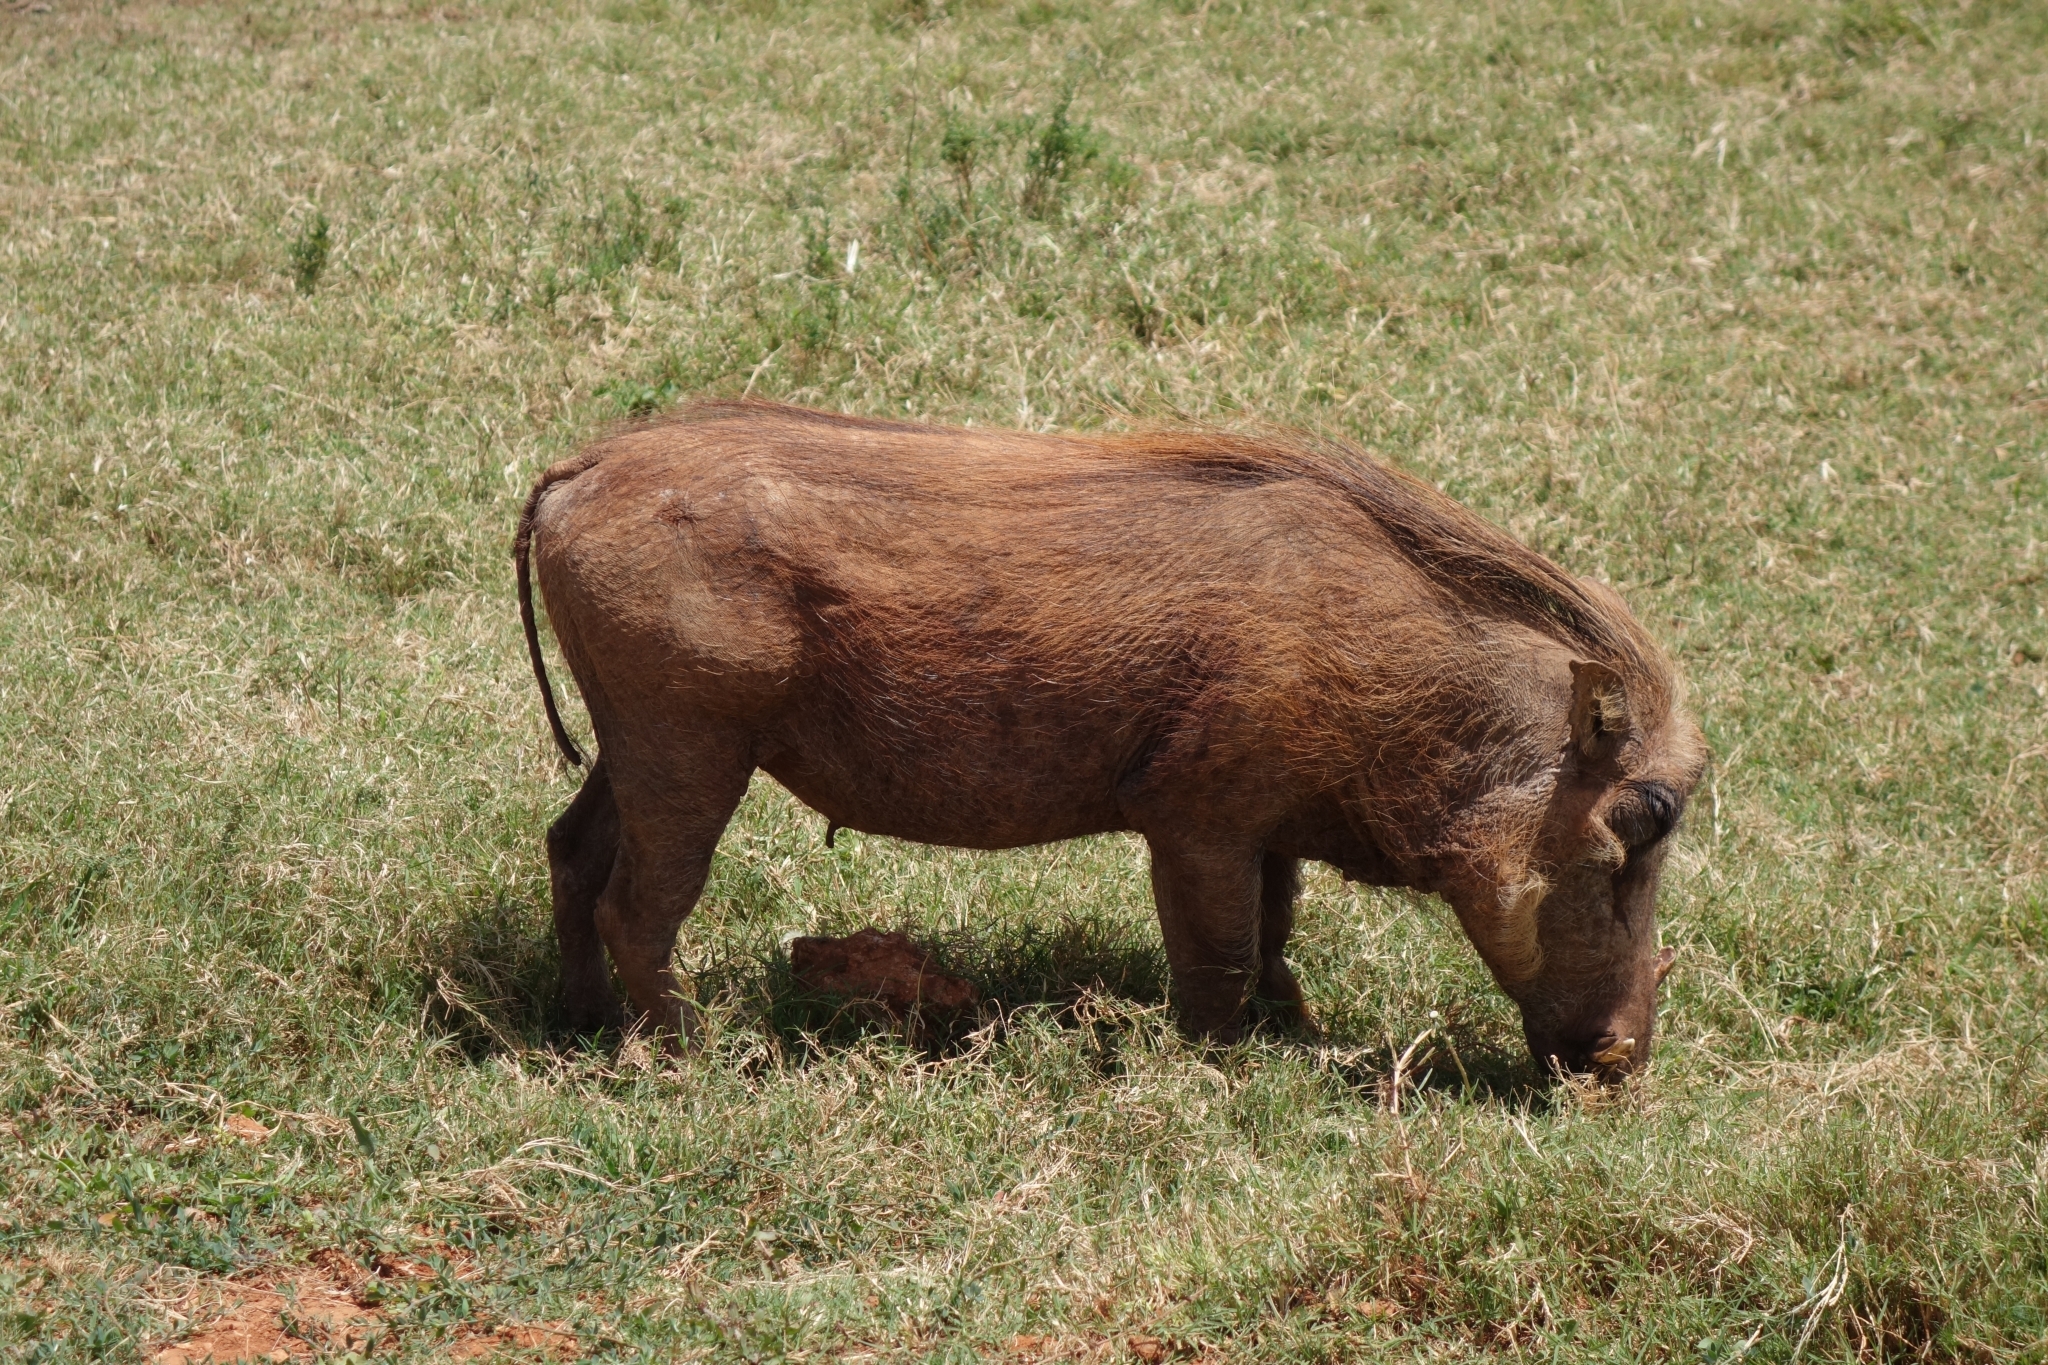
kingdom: Animalia
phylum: Chordata
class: Mammalia
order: Artiodactyla
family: Suidae
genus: Phacochoerus
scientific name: Phacochoerus africanus
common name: Common warthog
